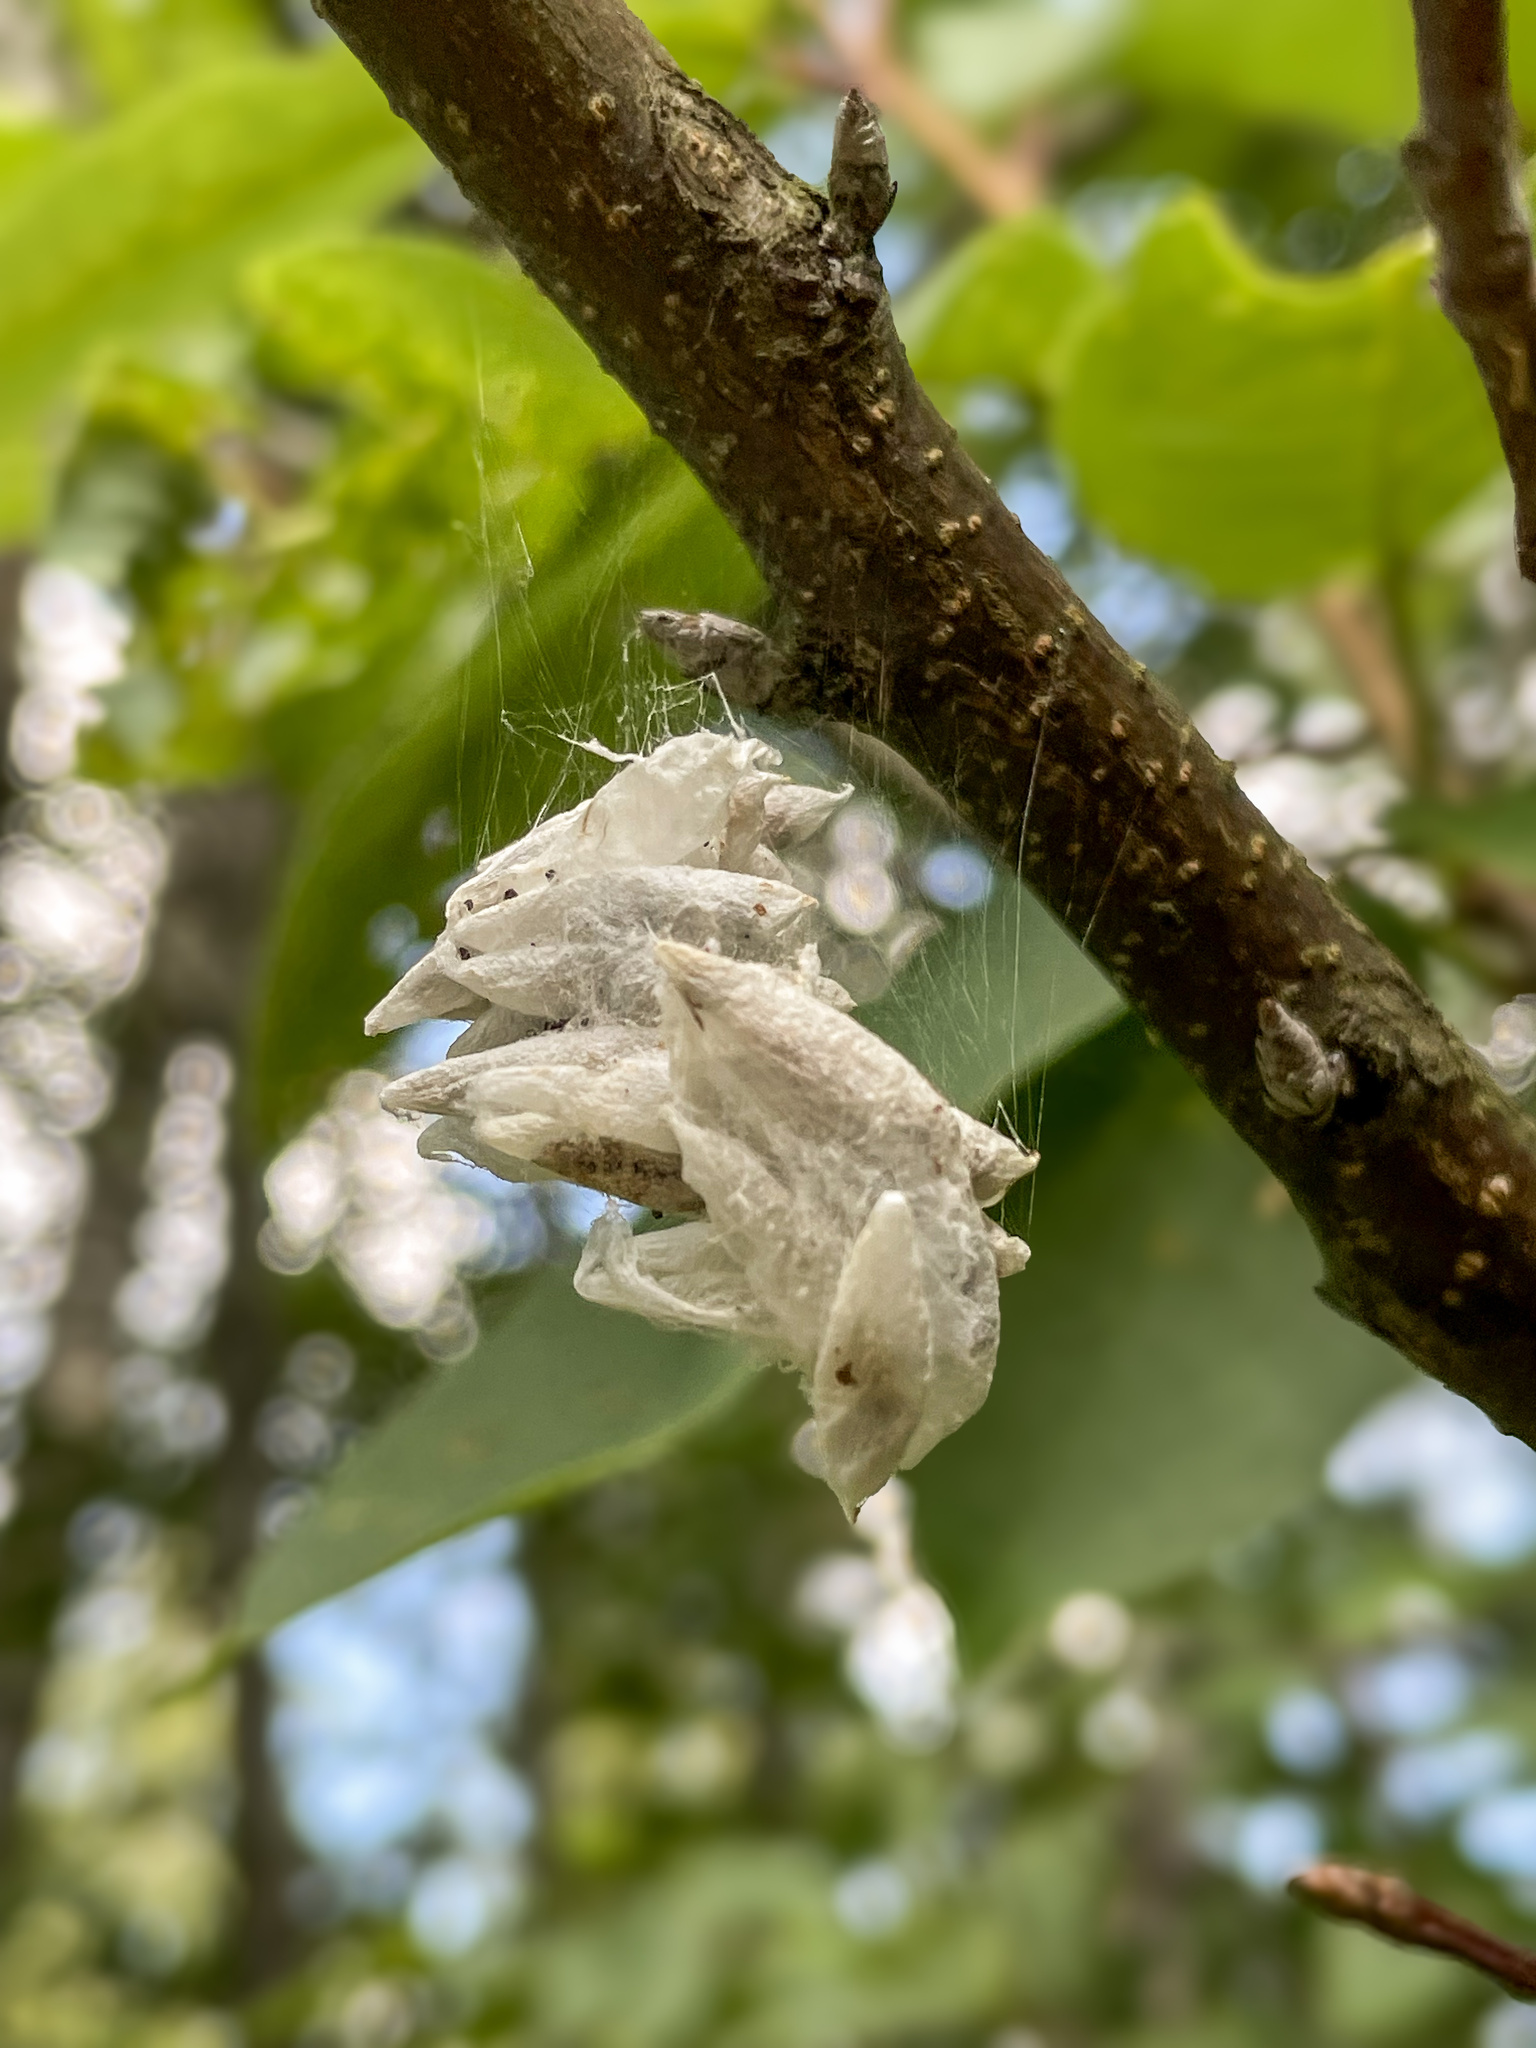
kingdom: Animalia
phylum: Arthropoda
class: Insecta
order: Lepidoptera
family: Yponomeutidae
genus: Yponomeuta
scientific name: Yponomeuta evonymella
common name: Bird-cherry ermine
